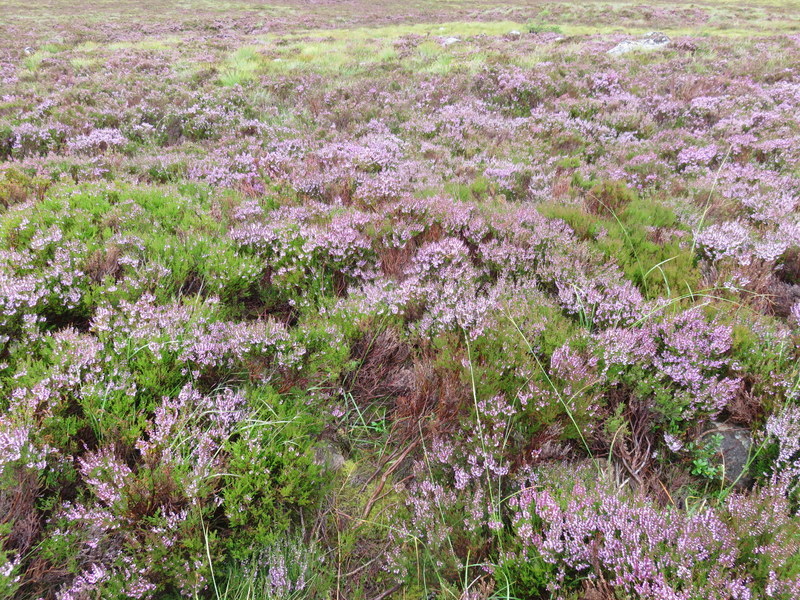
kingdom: Plantae
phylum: Tracheophyta
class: Magnoliopsida
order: Ericales
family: Ericaceae
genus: Calluna
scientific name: Calluna vulgaris
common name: Heather
